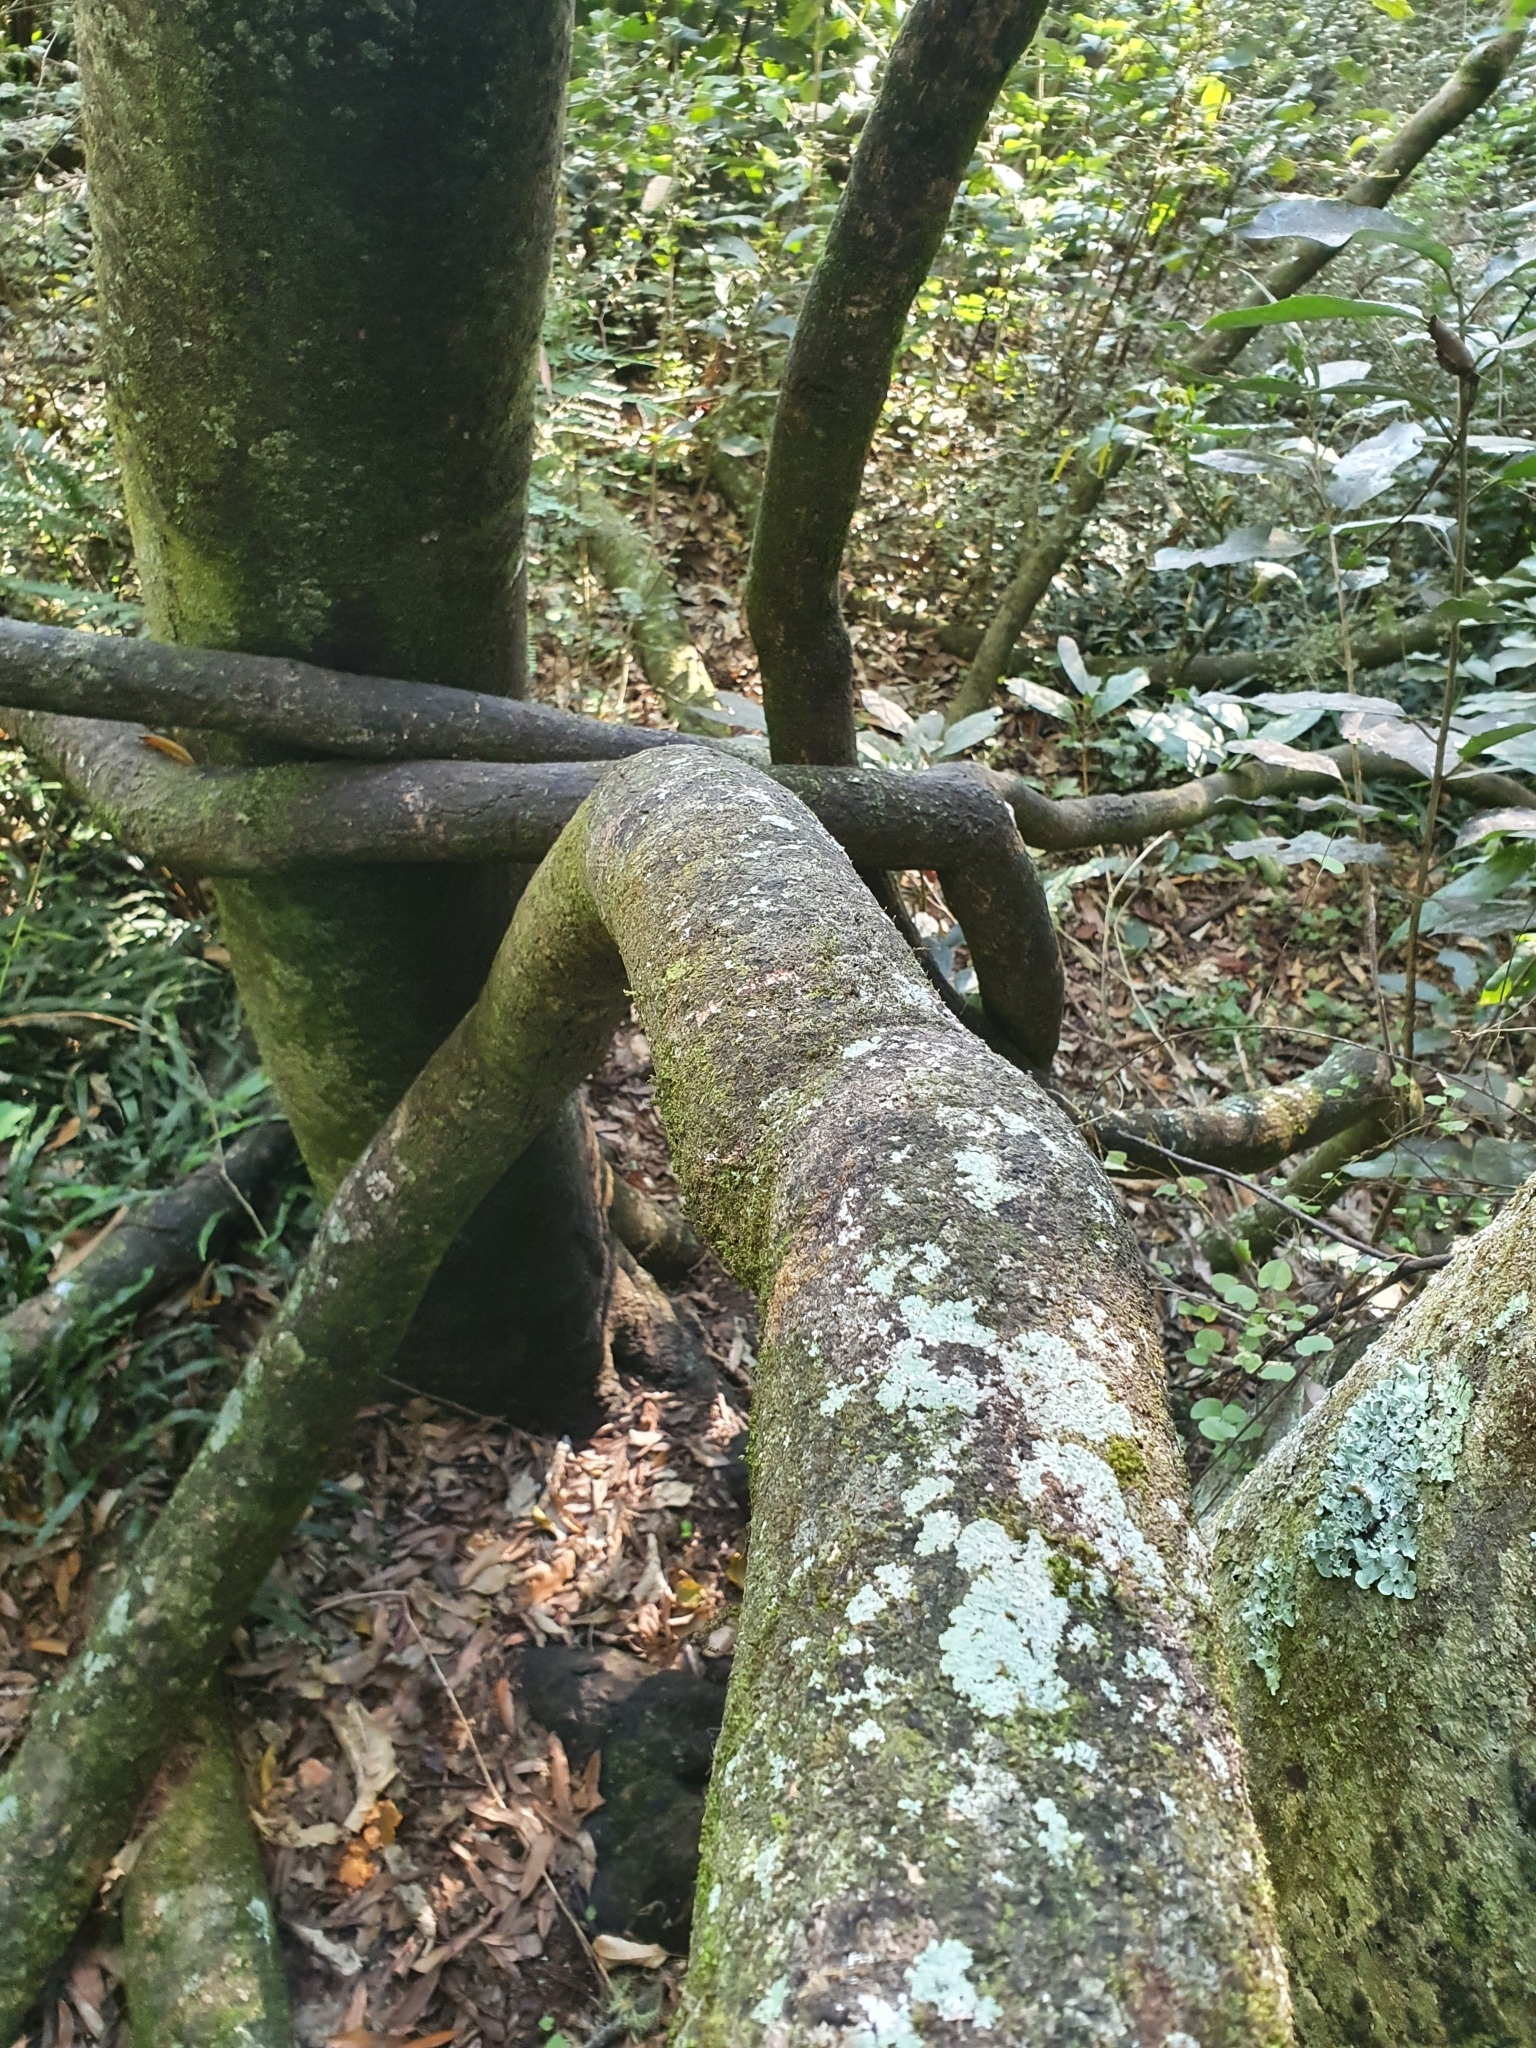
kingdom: Plantae
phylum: Tracheophyta
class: Magnoliopsida
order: Malpighiales
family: Passifloraceae
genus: Passiflora
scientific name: Passiflora tetrandra
